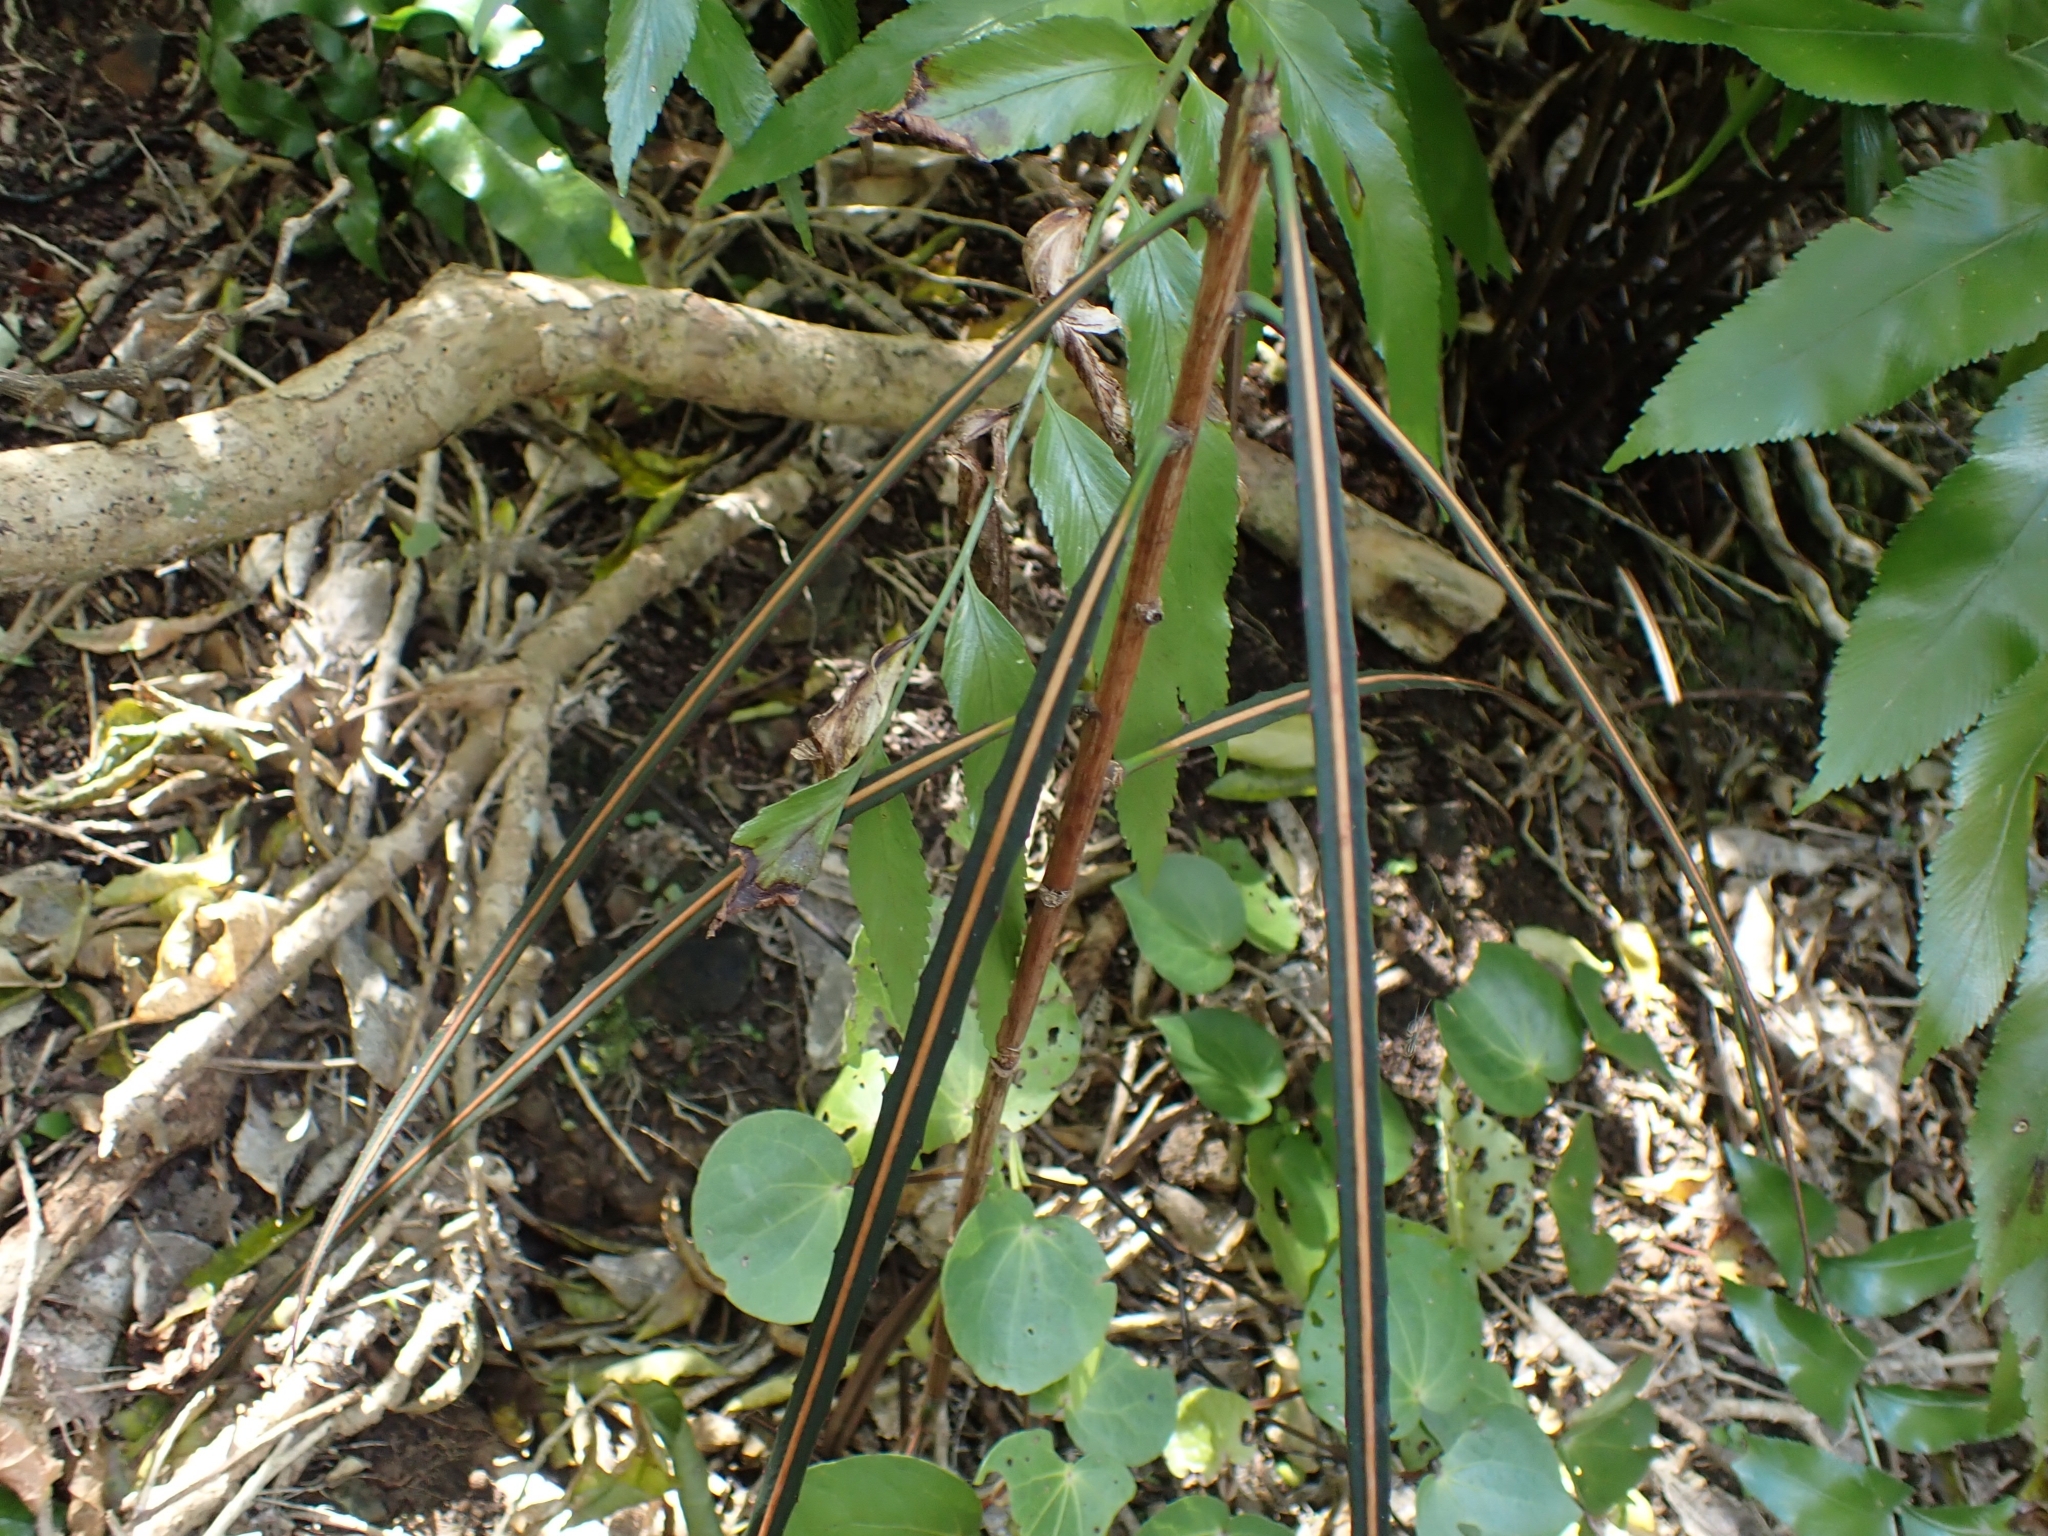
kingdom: Plantae
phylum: Tracheophyta
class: Magnoliopsida
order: Apiales
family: Araliaceae
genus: Pseudopanax
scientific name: Pseudopanax crassifolius
